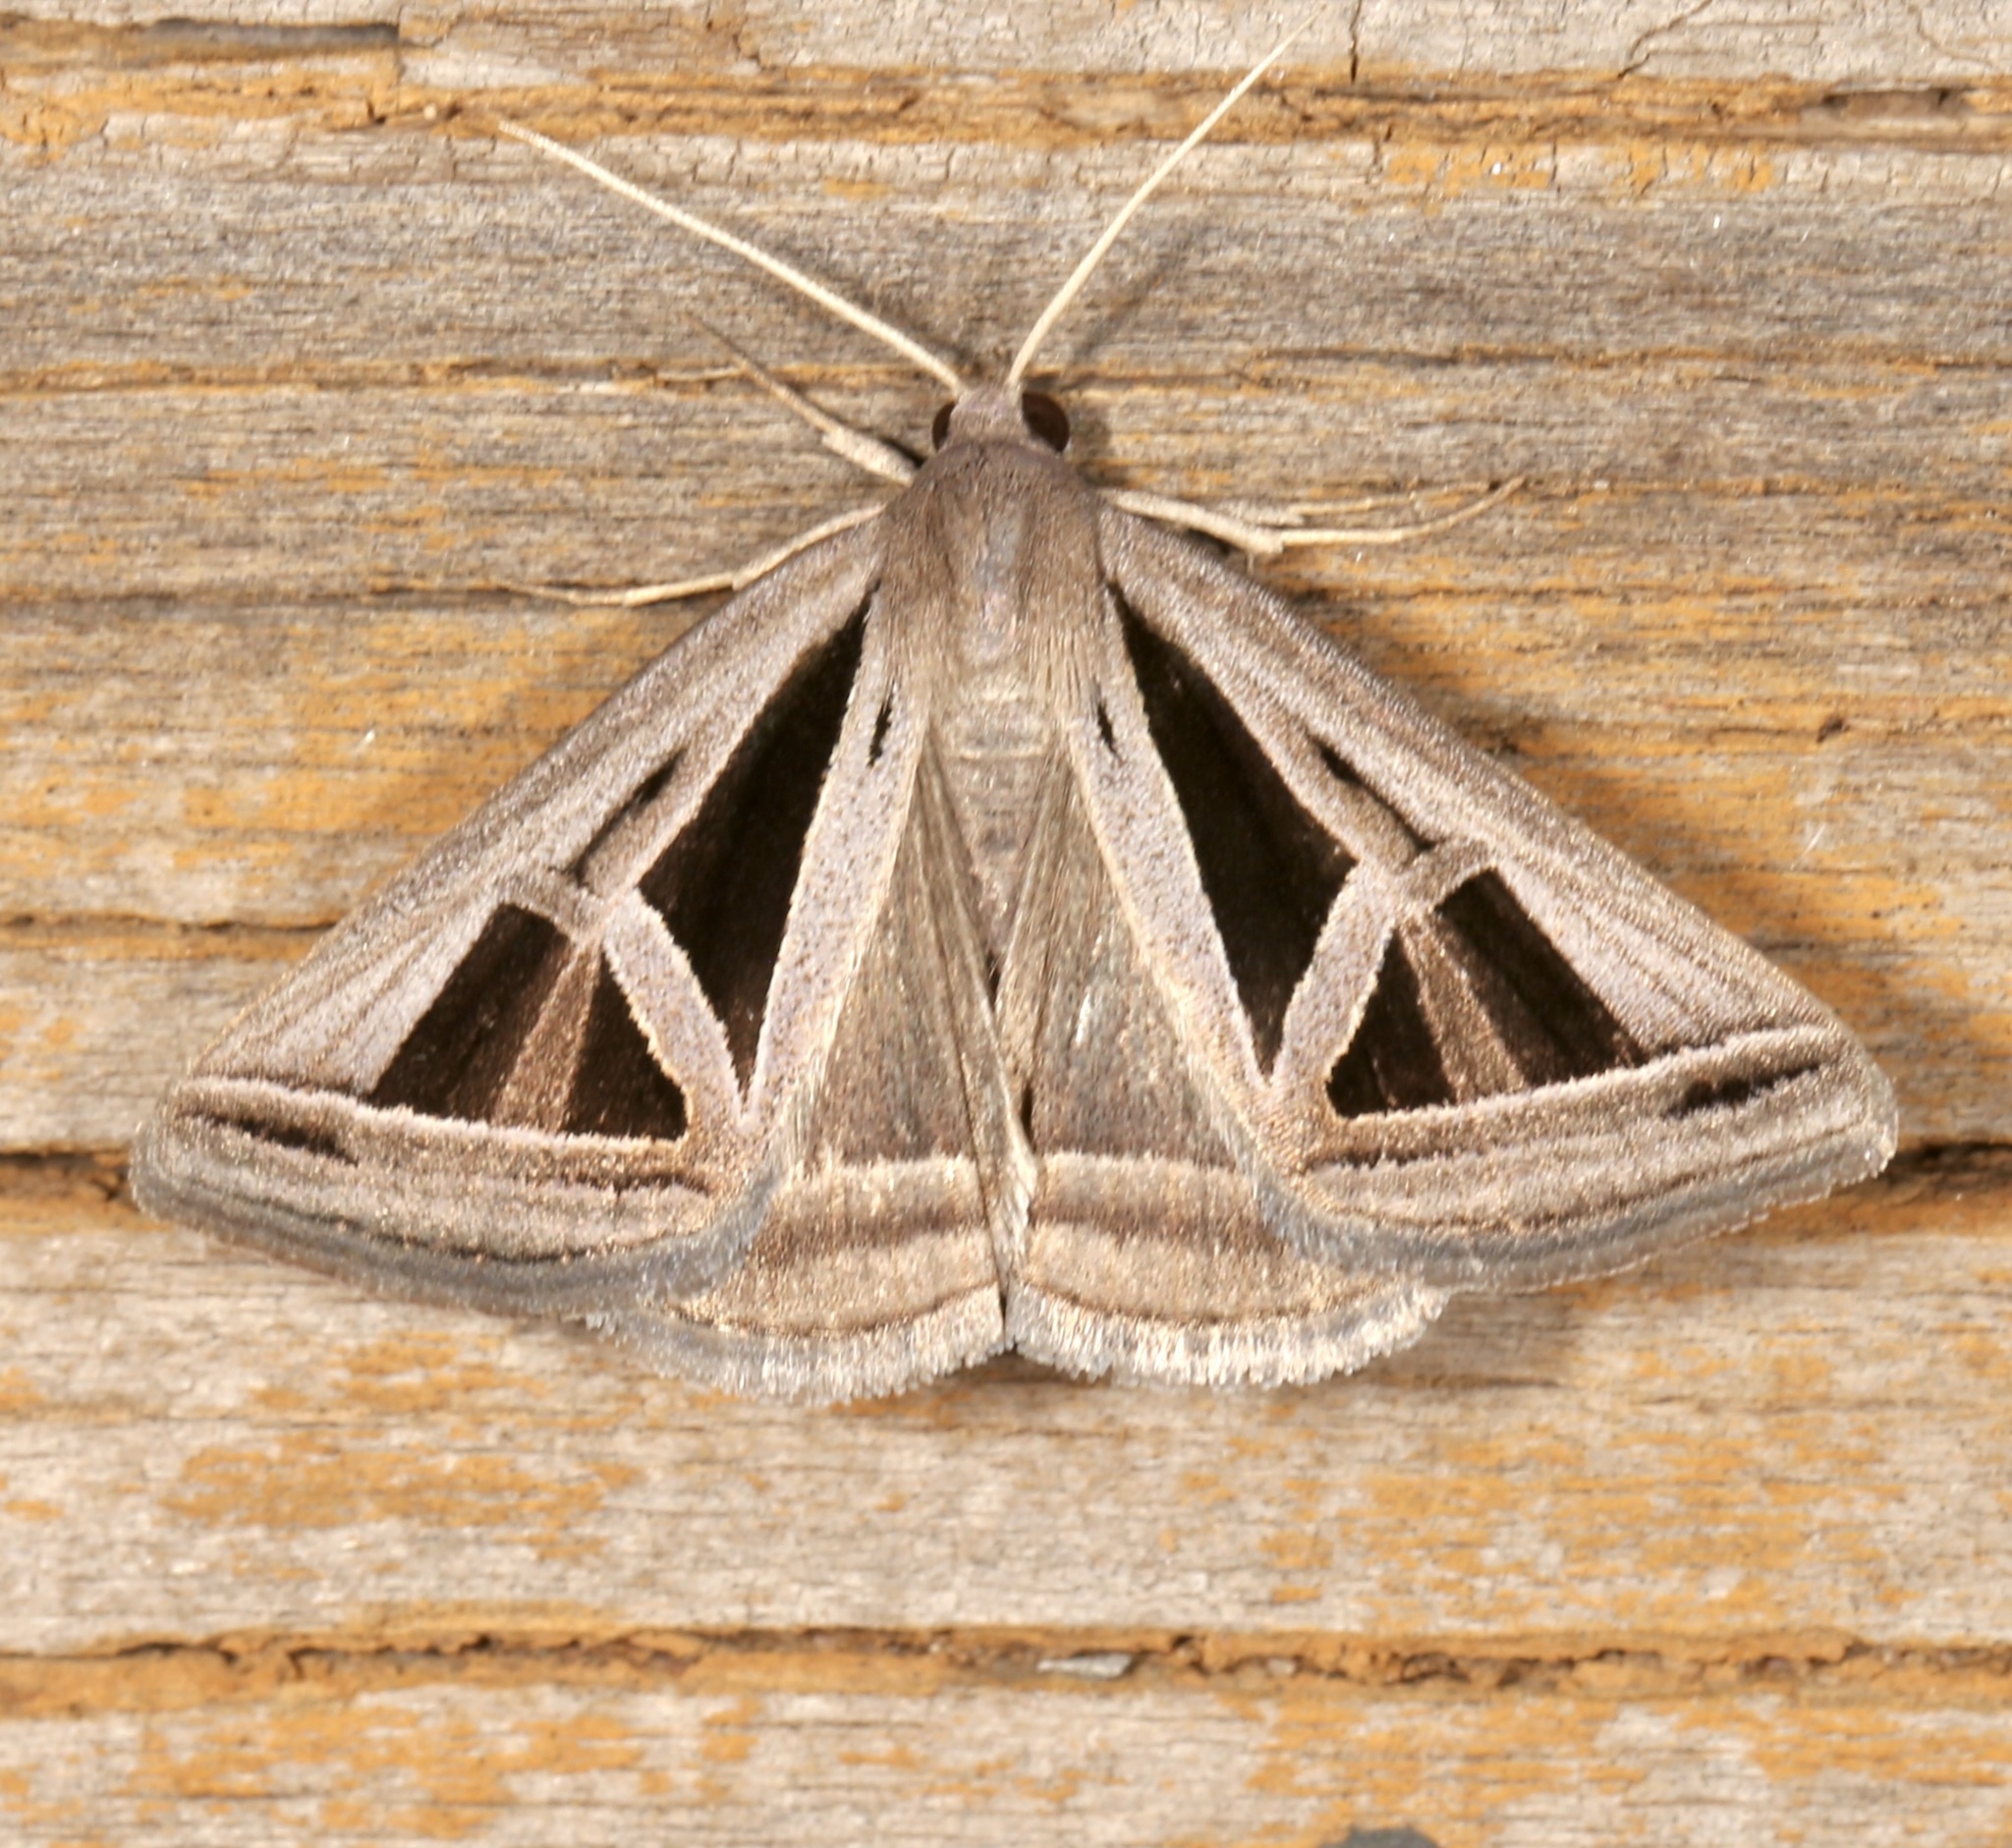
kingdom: Animalia
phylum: Arthropoda
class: Insecta
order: Lepidoptera
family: Erebidae
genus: Callistege
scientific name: Callistege triangula
